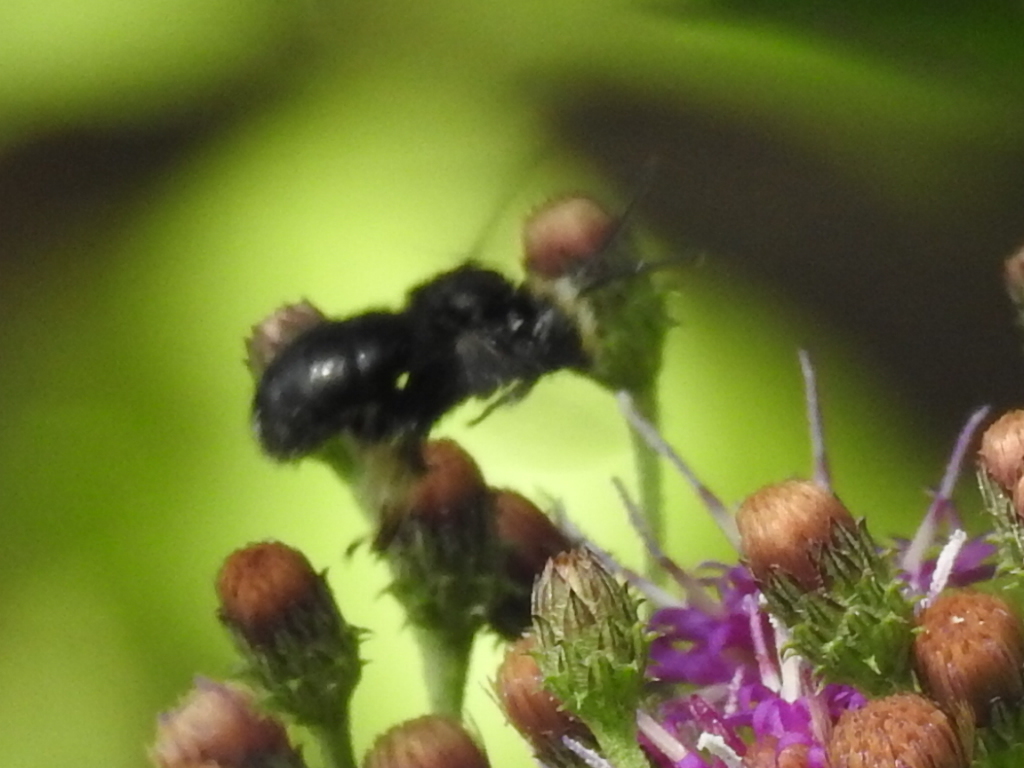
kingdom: Animalia
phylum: Arthropoda
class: Insecta
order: Hymenoptera
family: Apidae
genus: Melissodes
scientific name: Melissodes bimaculatus
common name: Two-spotted long-horned bee
